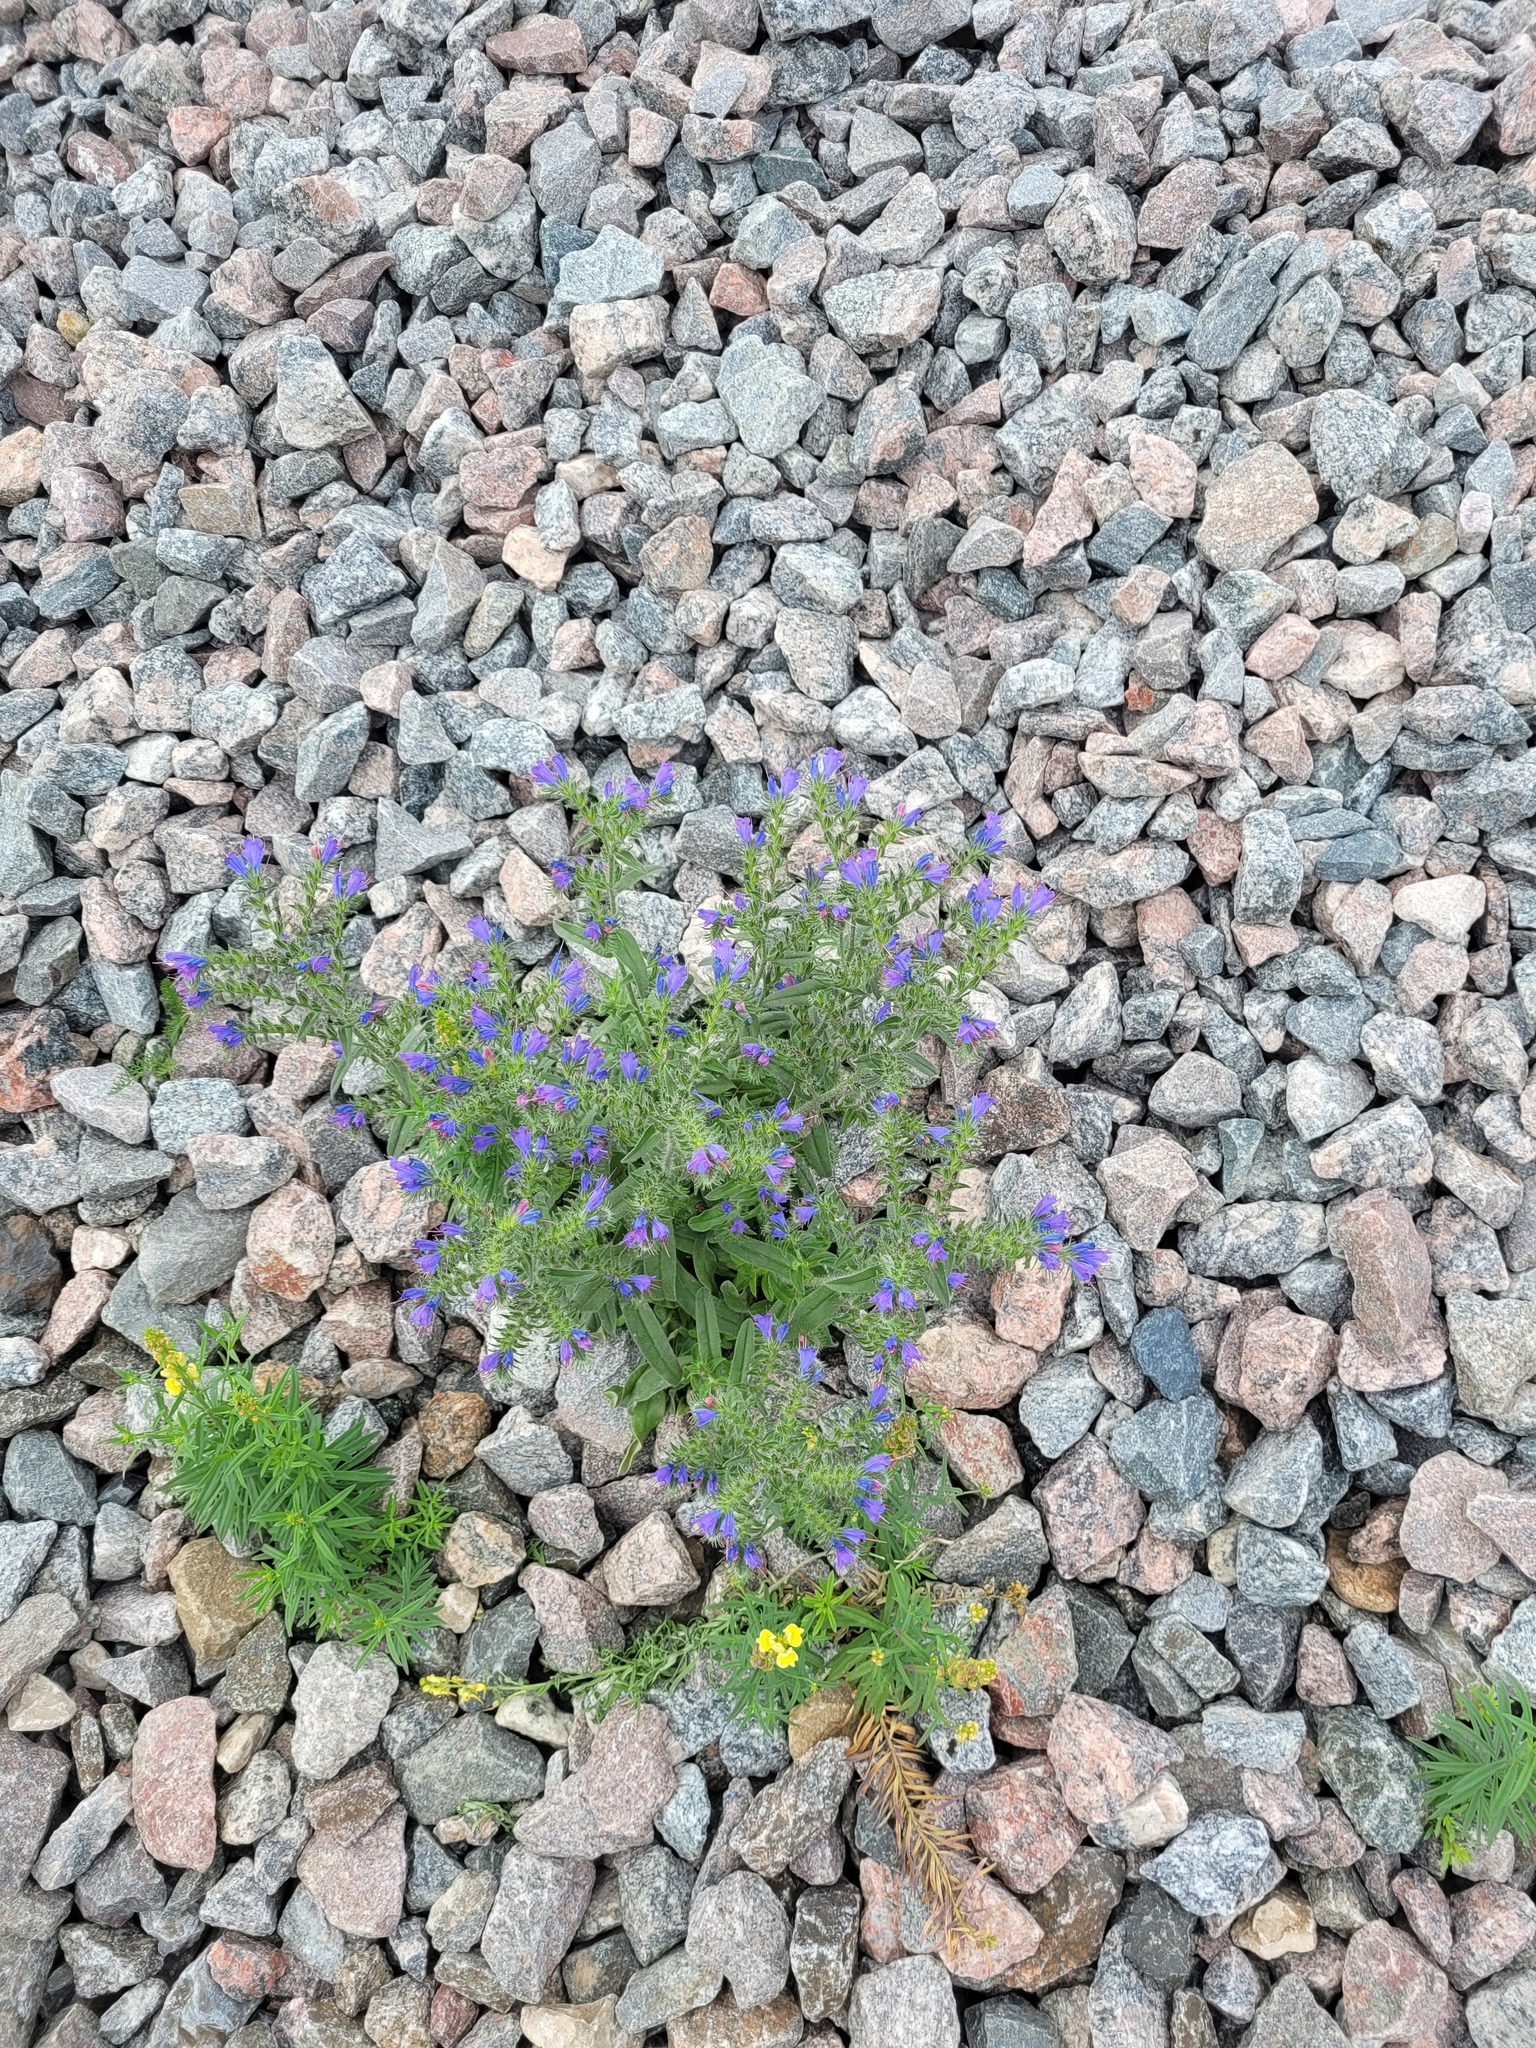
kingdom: Plantae
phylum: Tracheophyta
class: Magnoliopsida
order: Boraginales
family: Boraginaceae
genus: Echium
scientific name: Echium vulgare
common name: Common viper's bugloss
